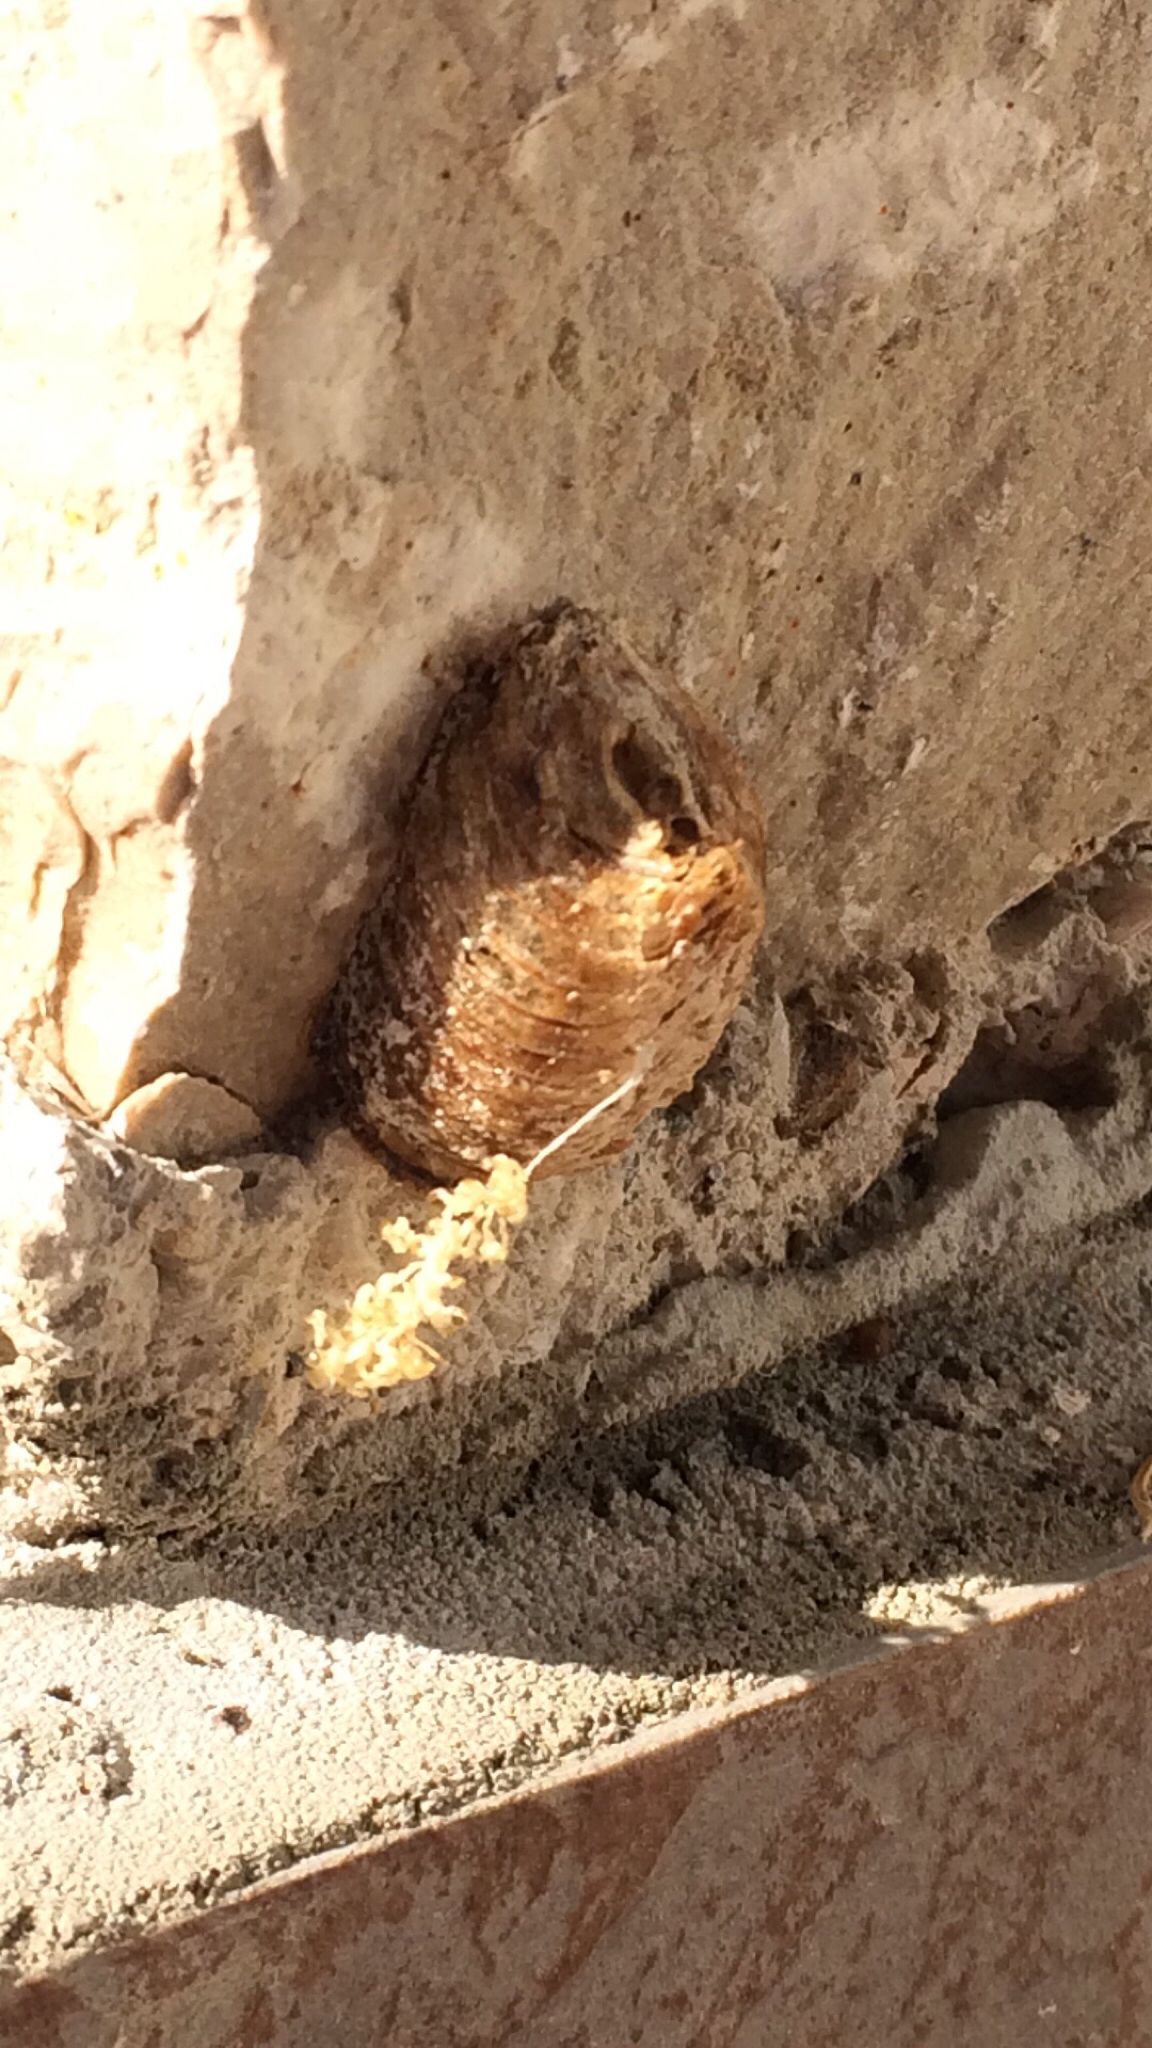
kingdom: Animalia
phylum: Arthropoda
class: Insecta
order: Mantodea
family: Mantidae
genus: Hierodula
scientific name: Hierodula transcaucasica
